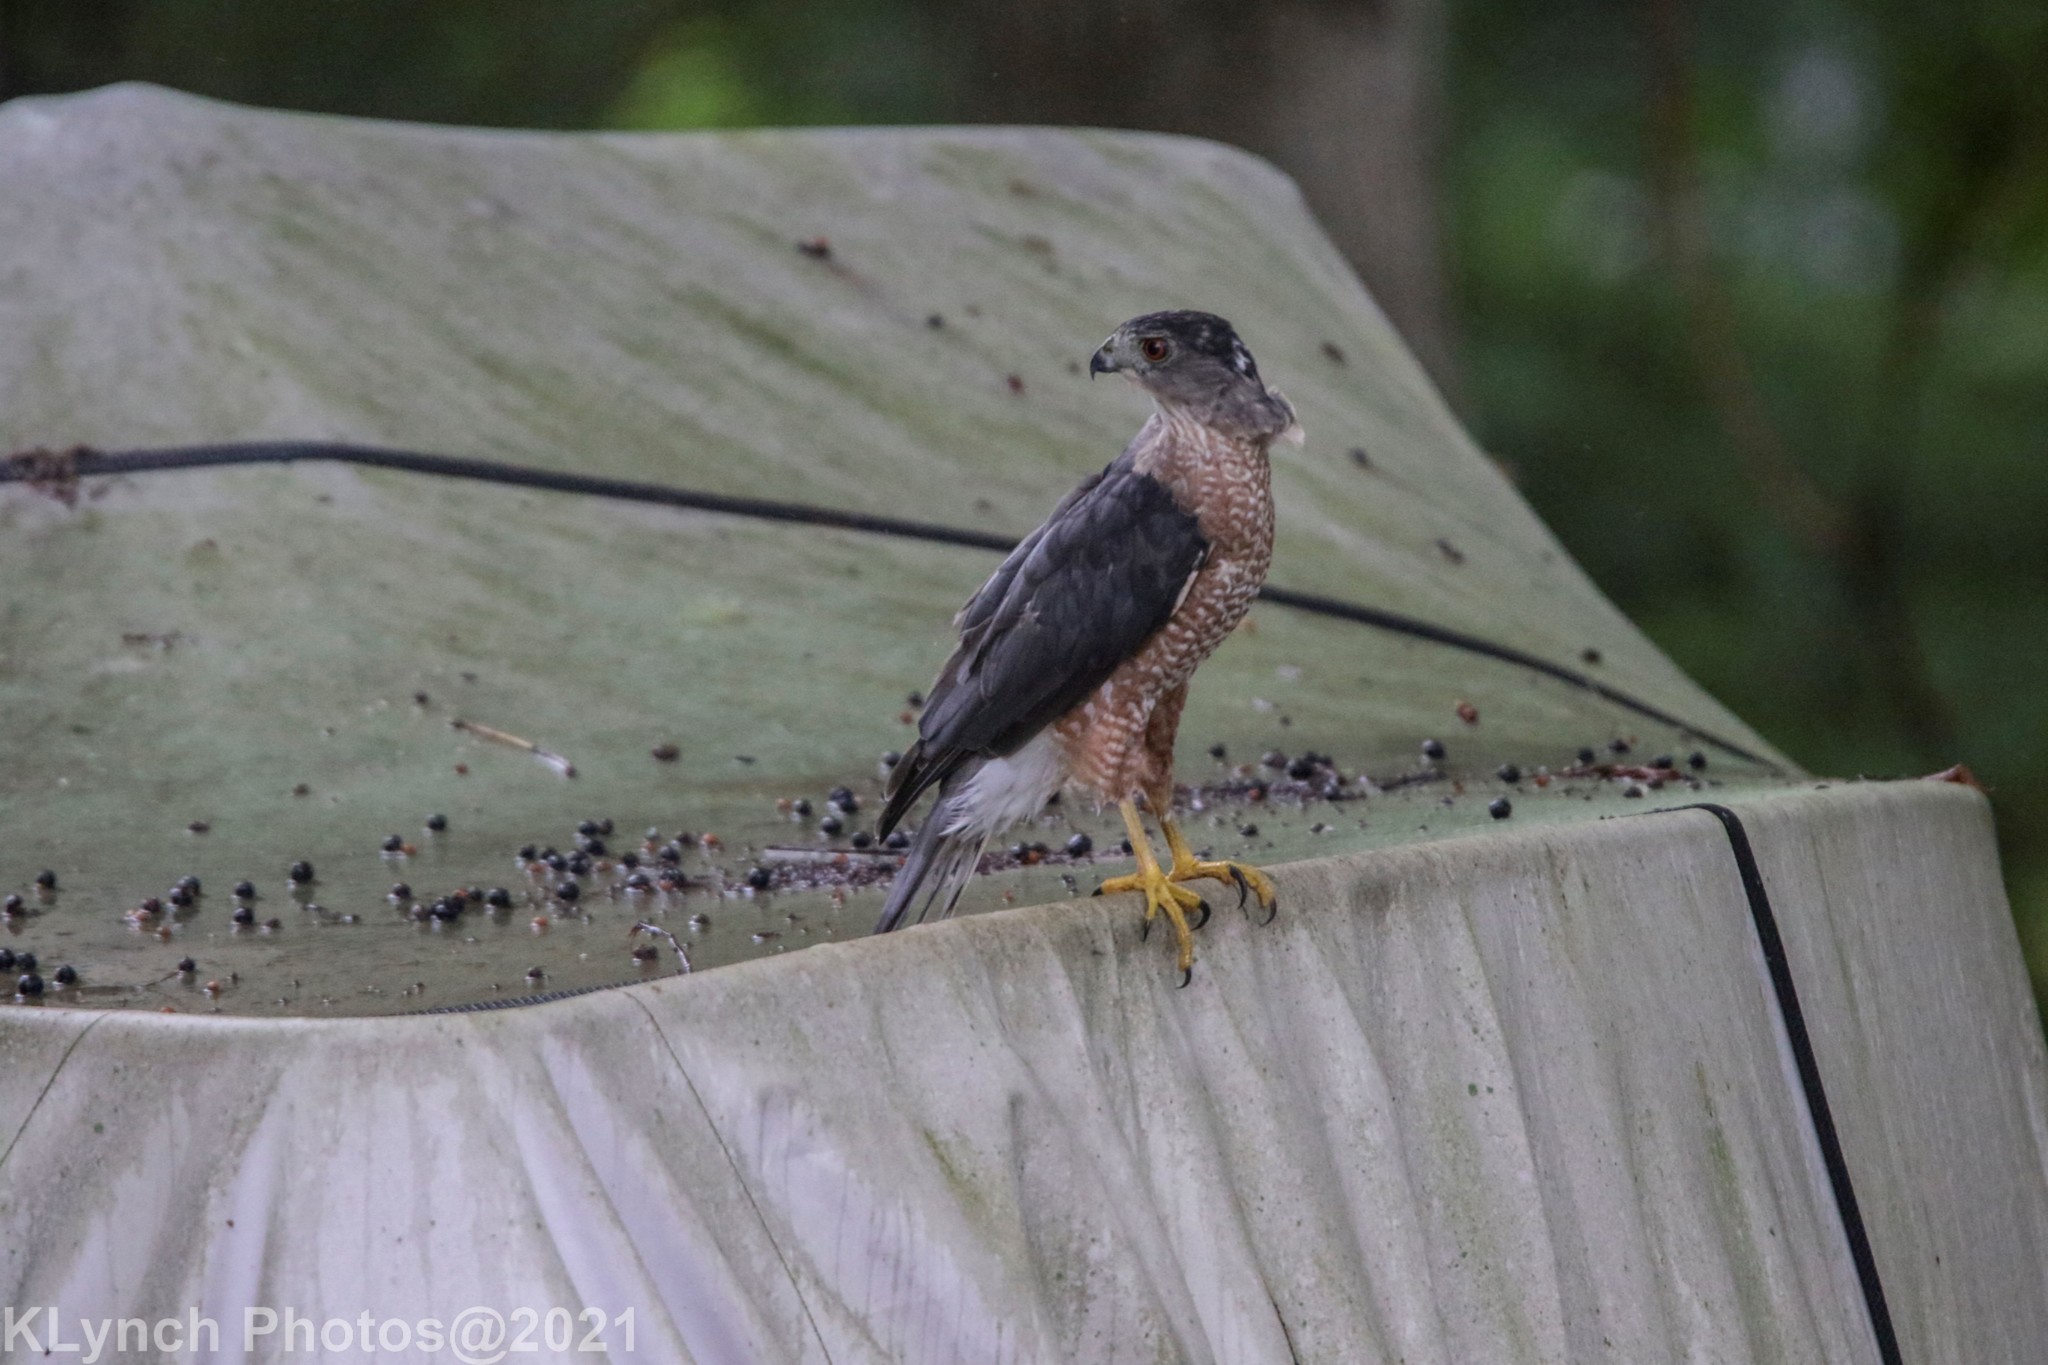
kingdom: Animalia
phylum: Chordata
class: Aves
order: Accipitriformes
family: Accipitridae
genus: Accipiter
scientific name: Accipiter cooperii
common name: Cooper's hawk
